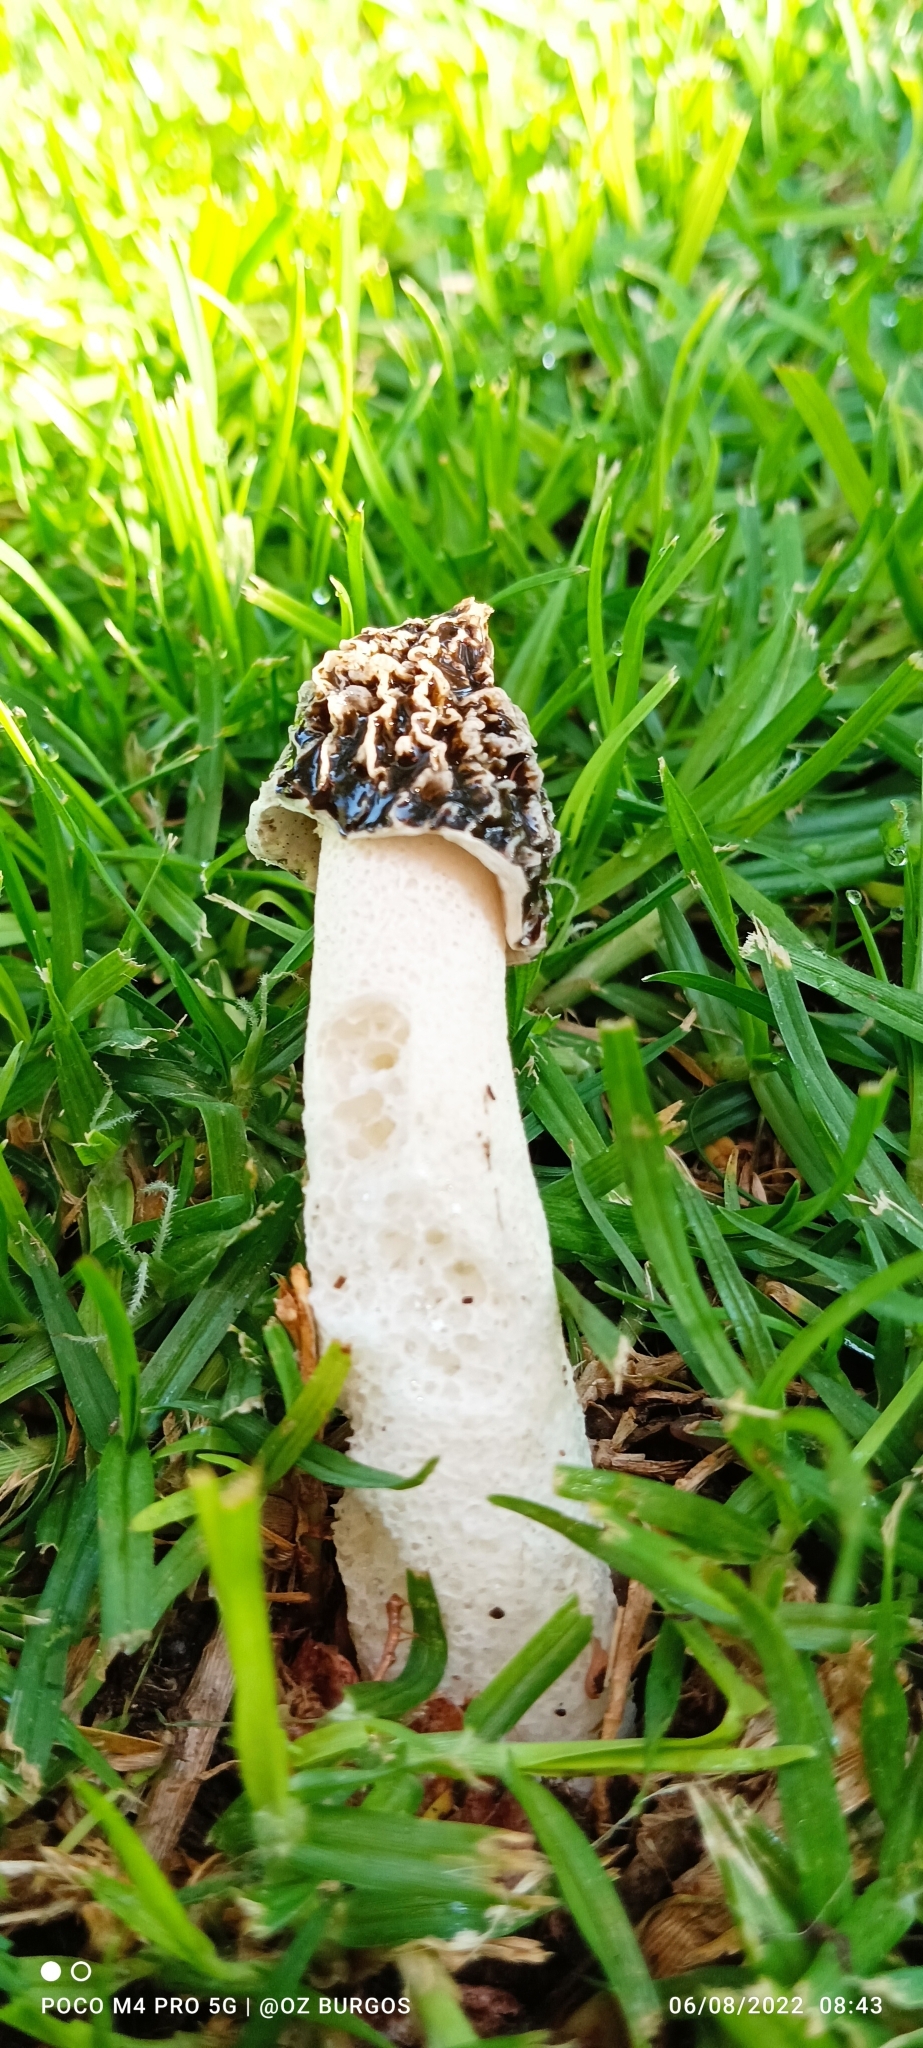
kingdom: Fungi
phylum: Basidiomycota
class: Agaricomycetes
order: Phallales
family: Phallaceae
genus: Phallus
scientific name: Phallus impudicus
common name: Common stinkhorn
